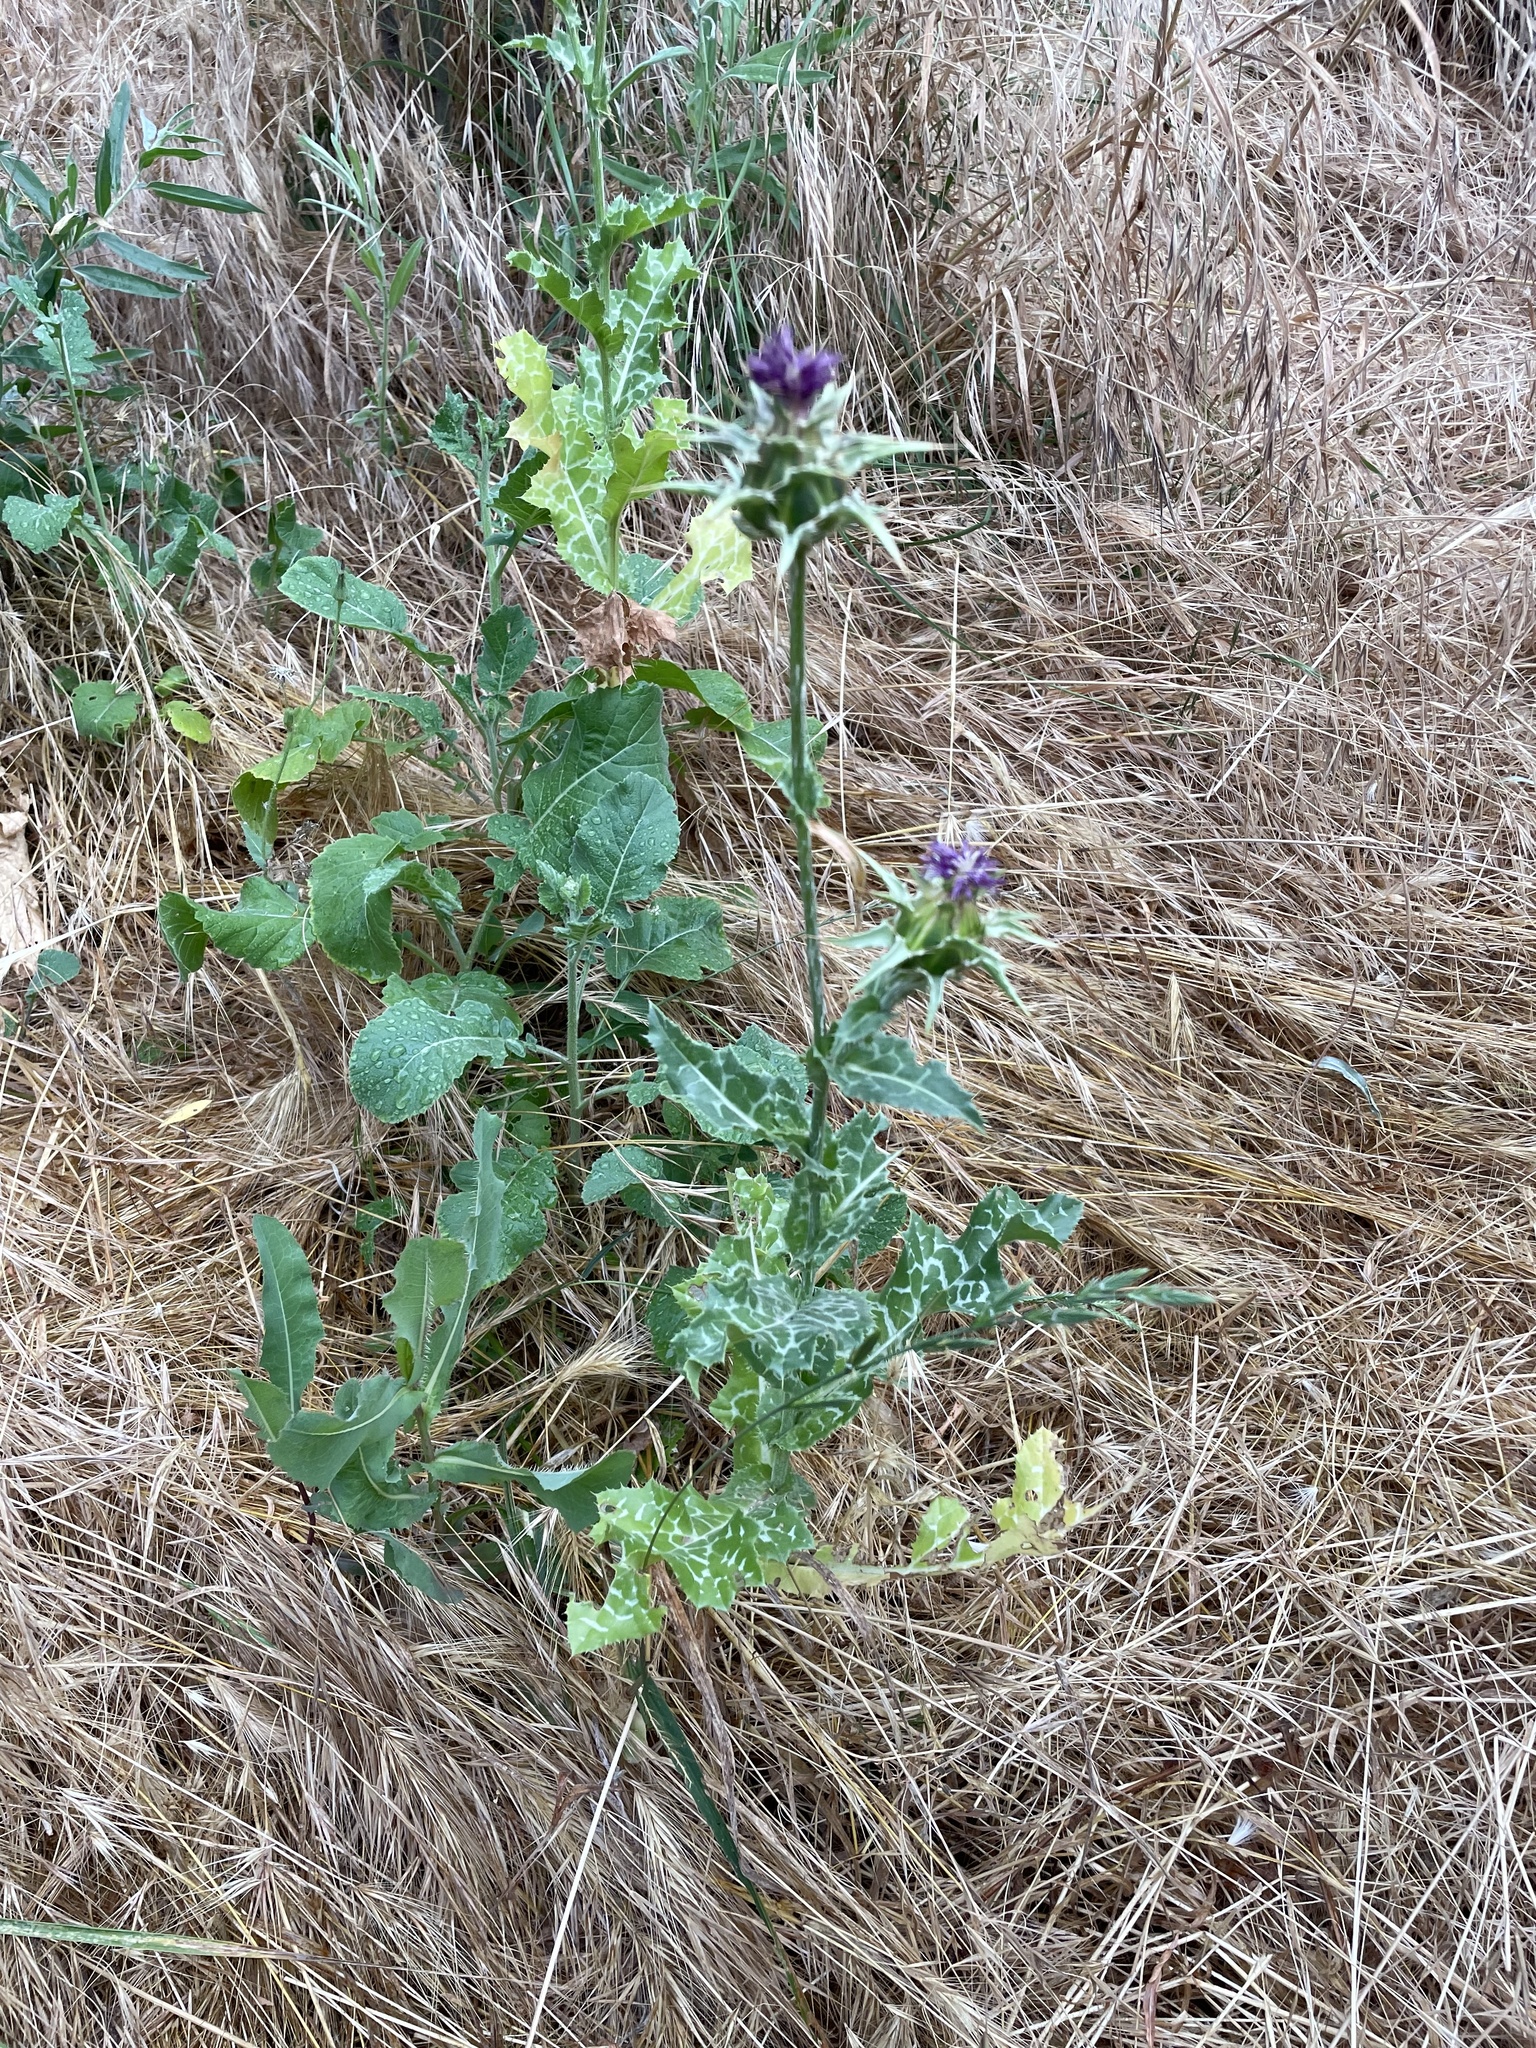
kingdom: Plantae
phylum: Tracheophyta
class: Magnoliopsida
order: Asterales
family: Asteraceae
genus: Silybum
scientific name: Silybum marianum
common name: Milk thistle
